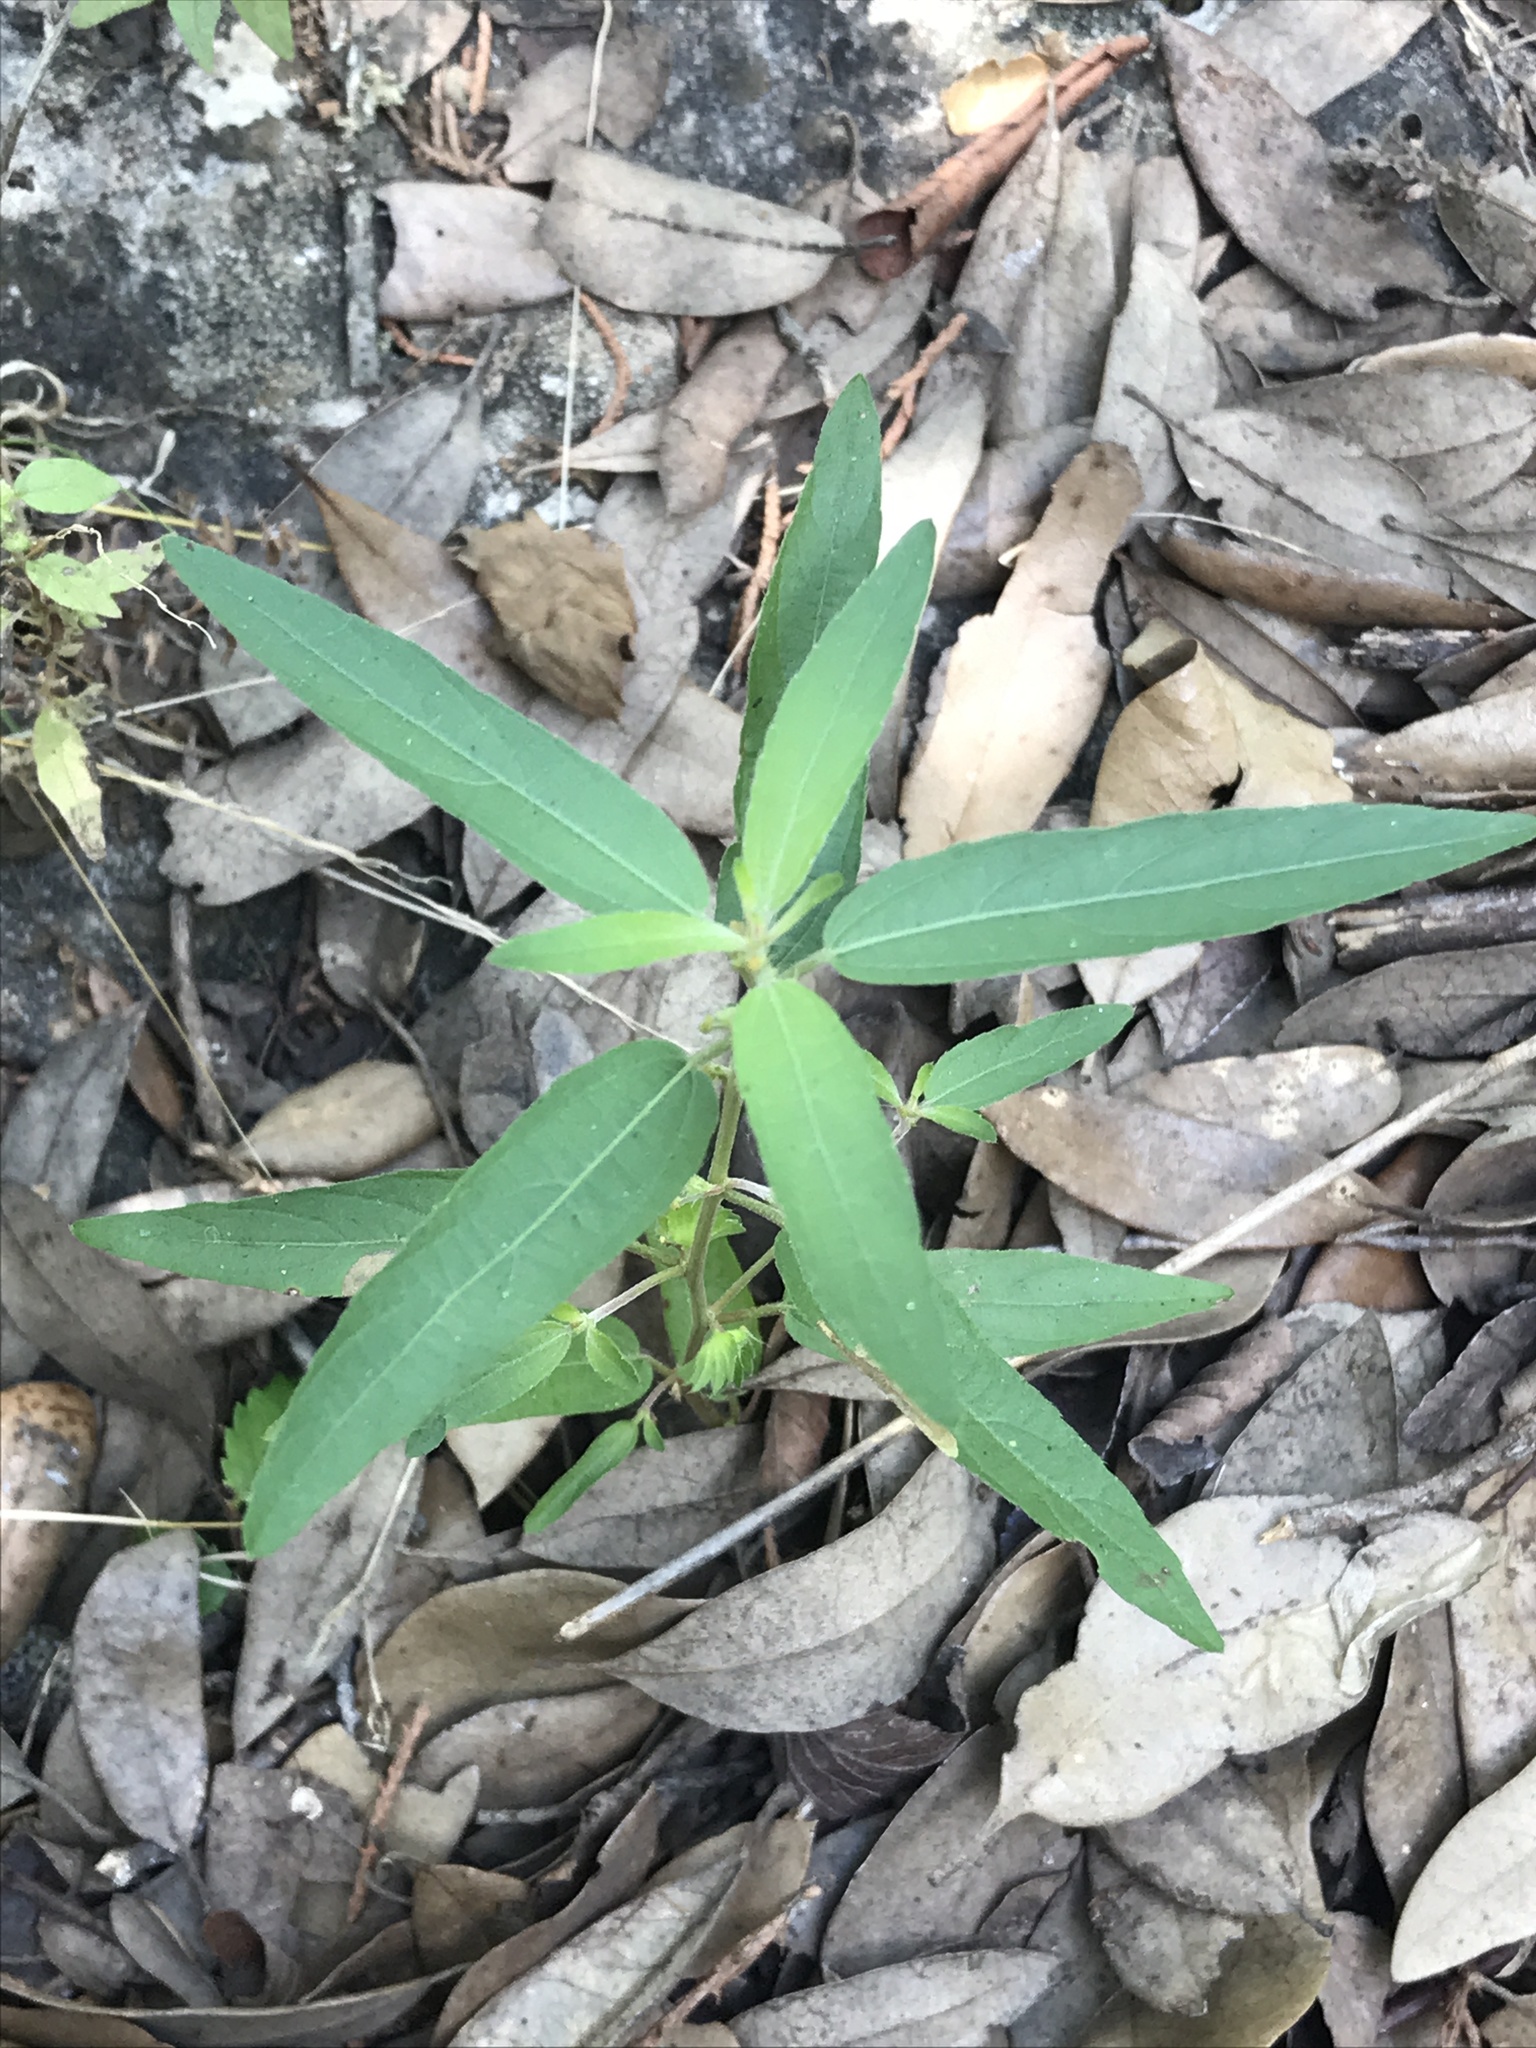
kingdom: Plantae
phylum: Tracheophyta
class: Magnoliopsida
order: Malpighiales
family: Euphorbiaceae
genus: Acalypha
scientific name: Acalypha gracilens
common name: Slender three-seeded mercury
